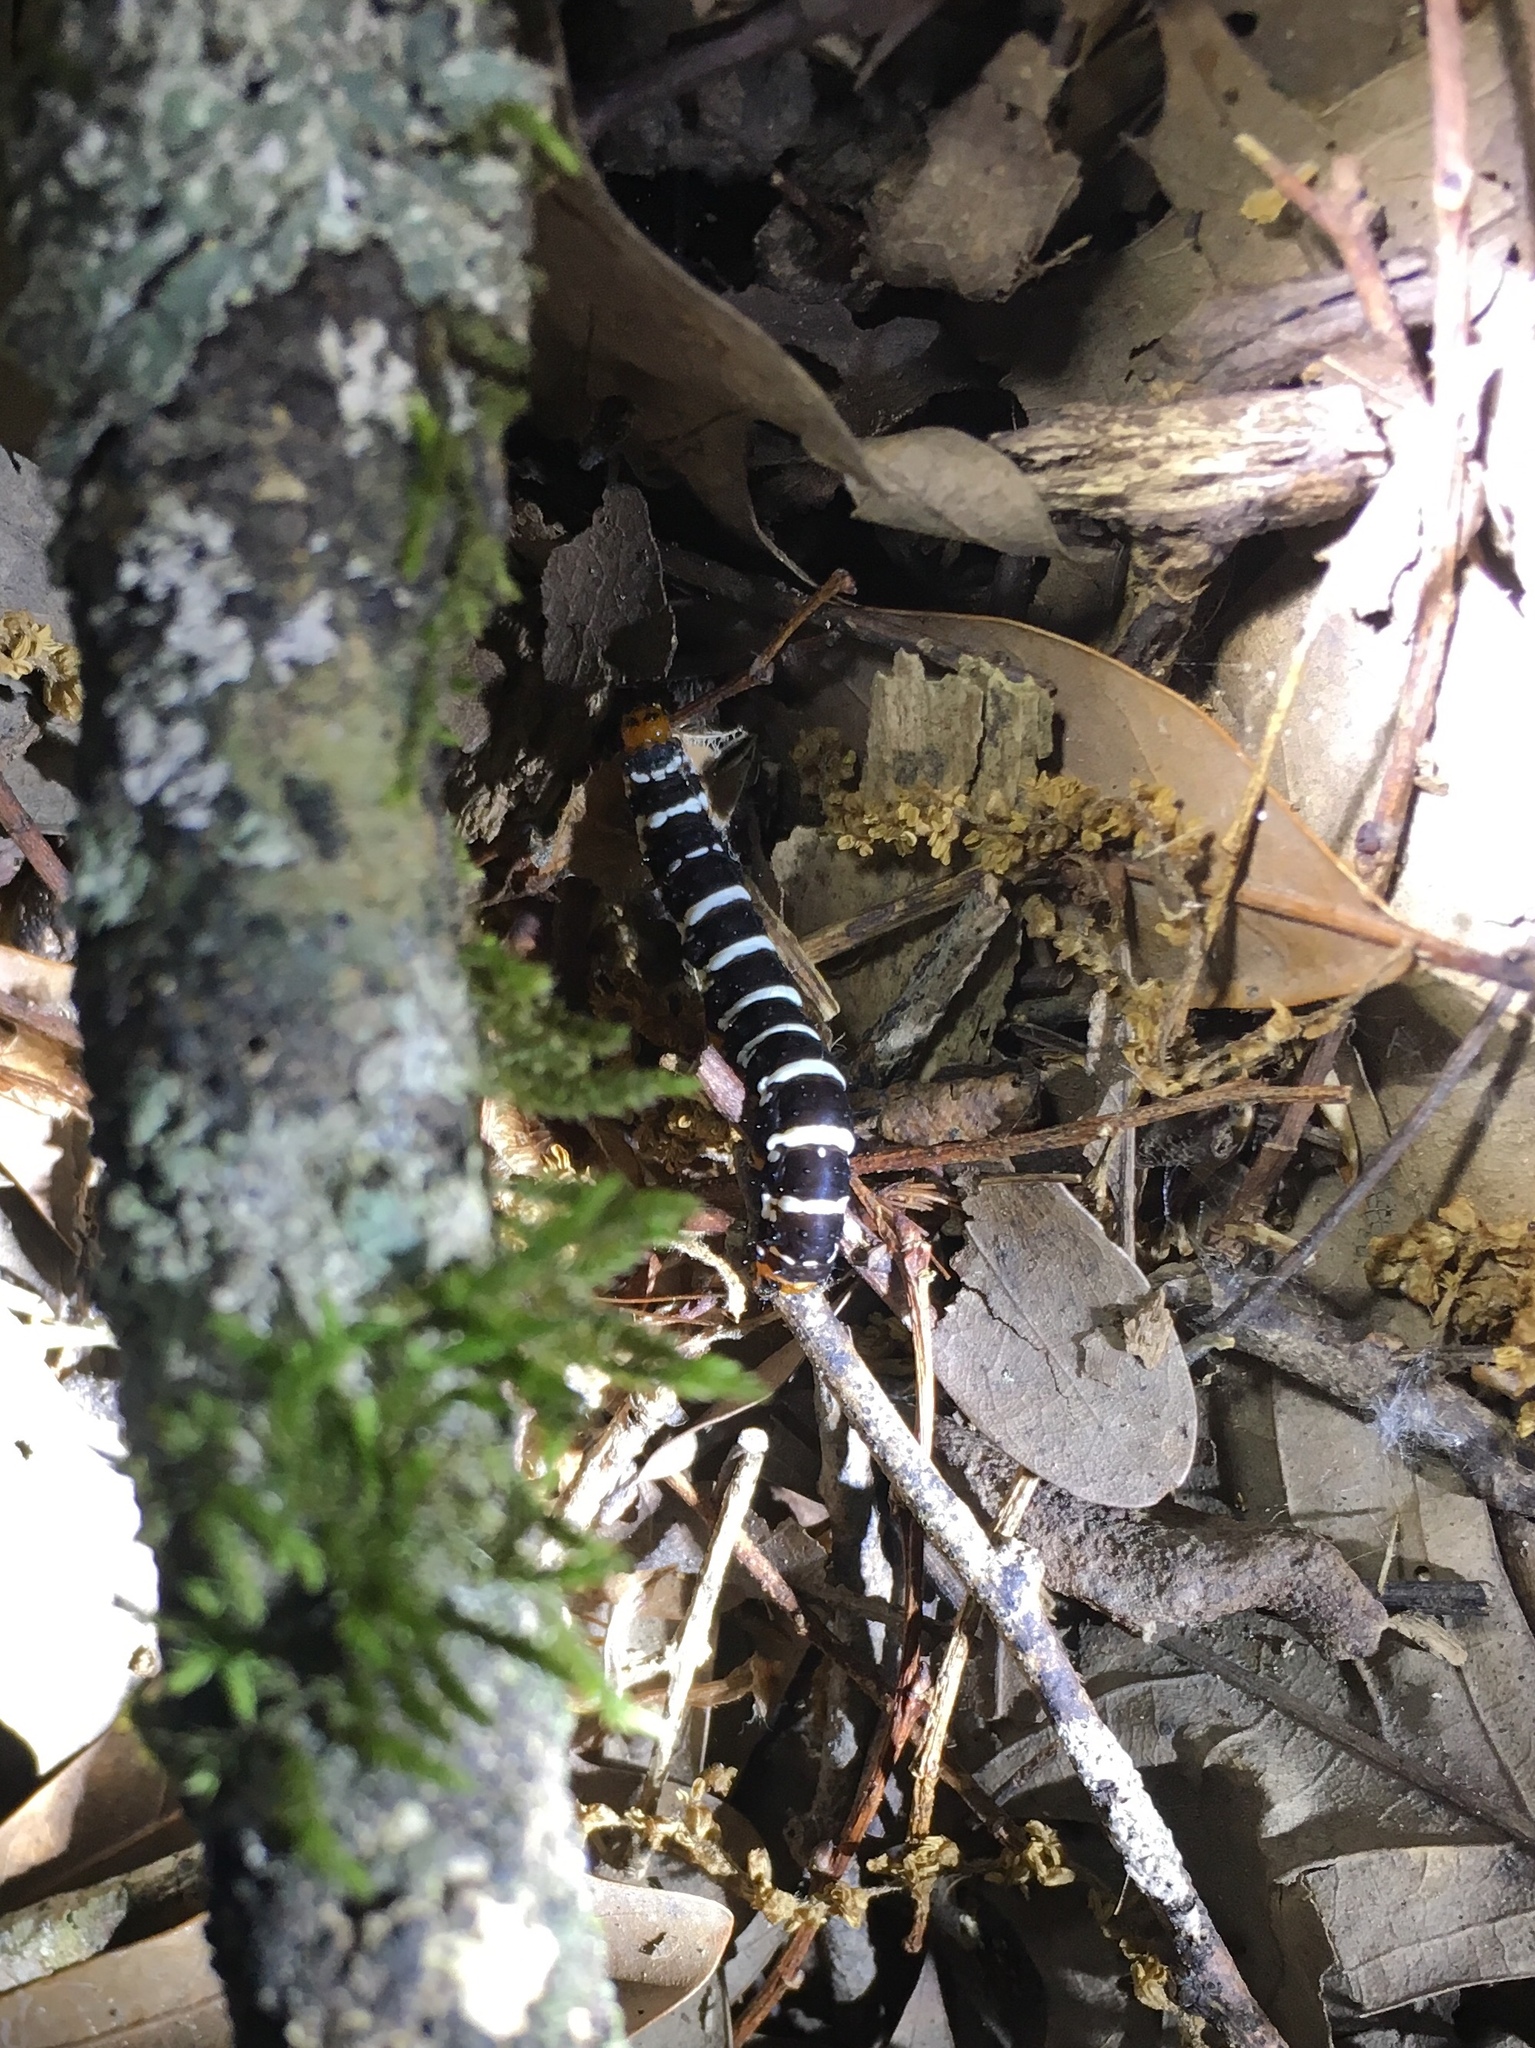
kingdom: Animalia
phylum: Arthropoda
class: Insecta
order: Lepidoptera
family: Noctuidae
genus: Xanthopastis
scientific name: Xanthopastis regnatrix
